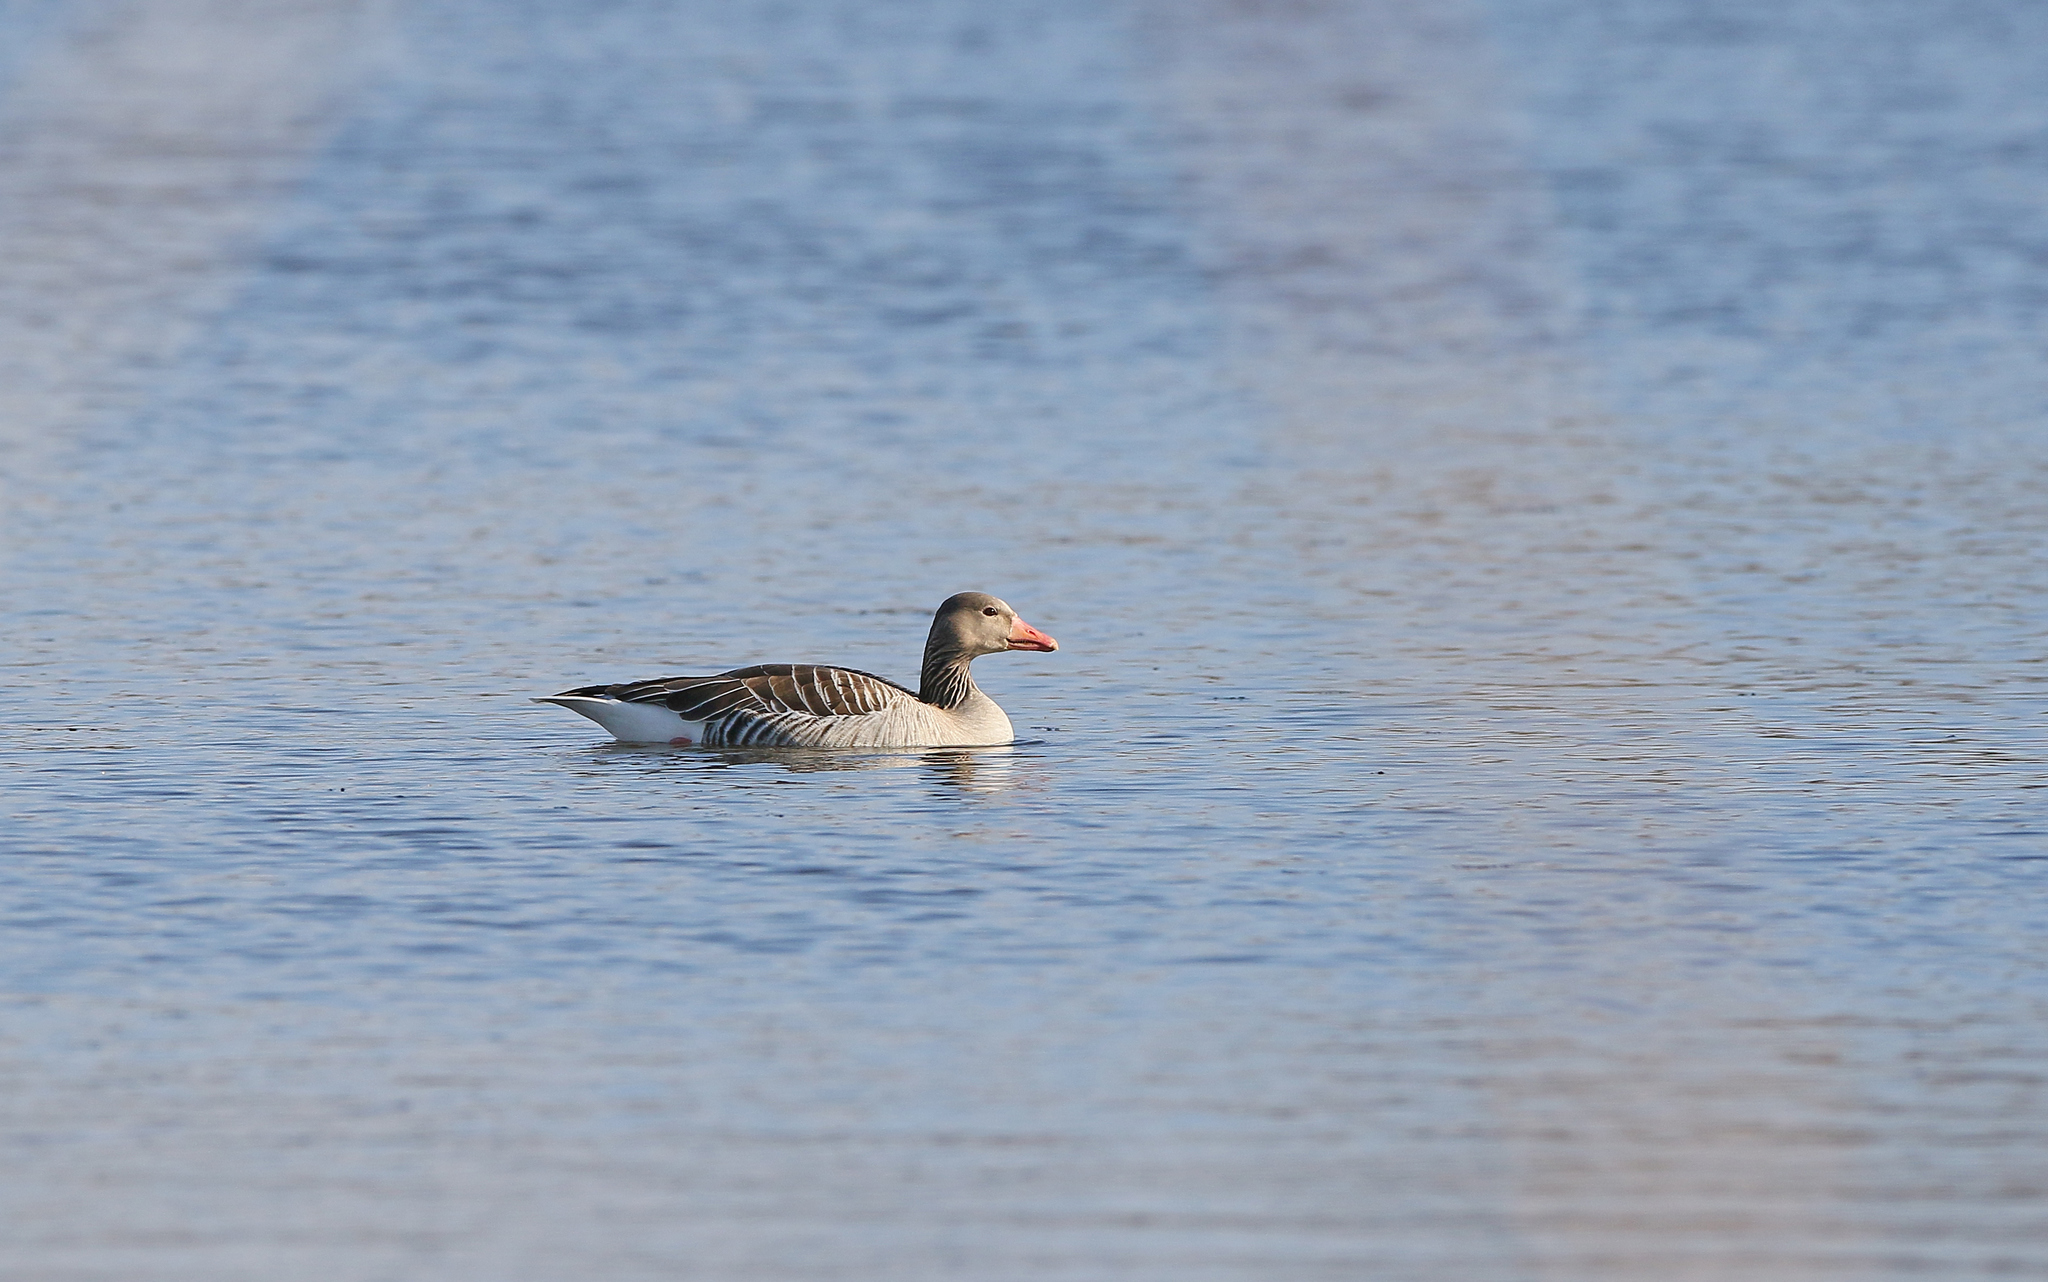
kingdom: Animalia
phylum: Chordata
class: Aves
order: Anseriformes
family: Anatidae
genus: Anser
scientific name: Anser anser
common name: Greylag goose
